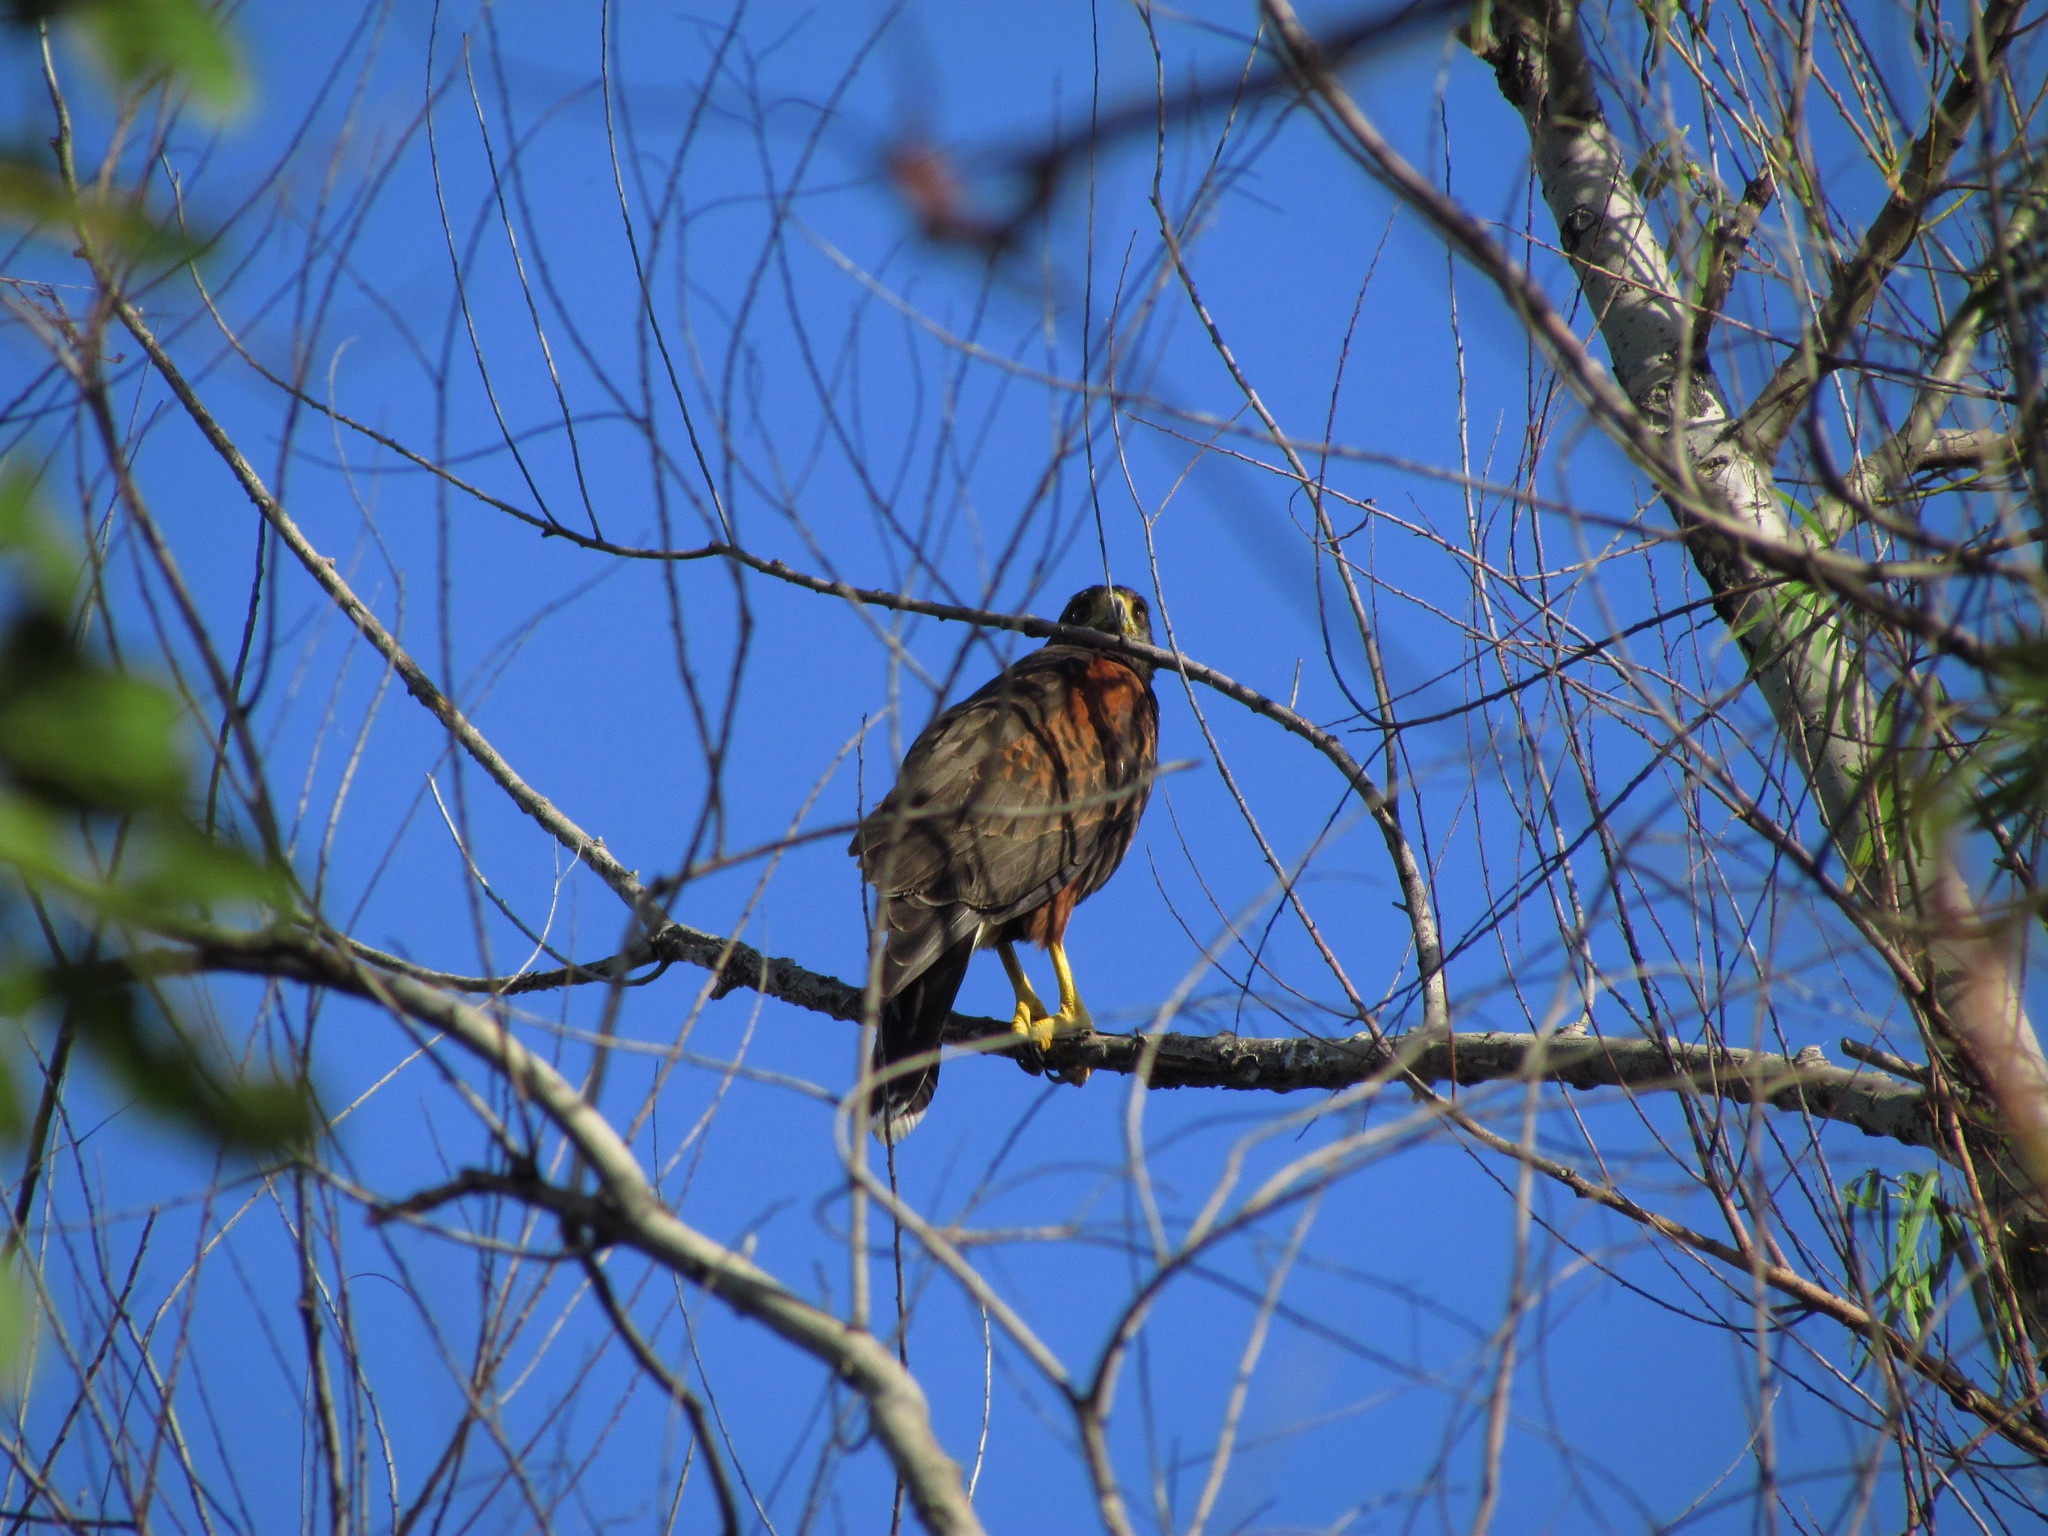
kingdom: Animalia
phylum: Chordata
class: Aves
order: Accipitriformes
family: Accipitridae
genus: Parabuteo
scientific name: Parabuteo unicinctus
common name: Harris's hawk
